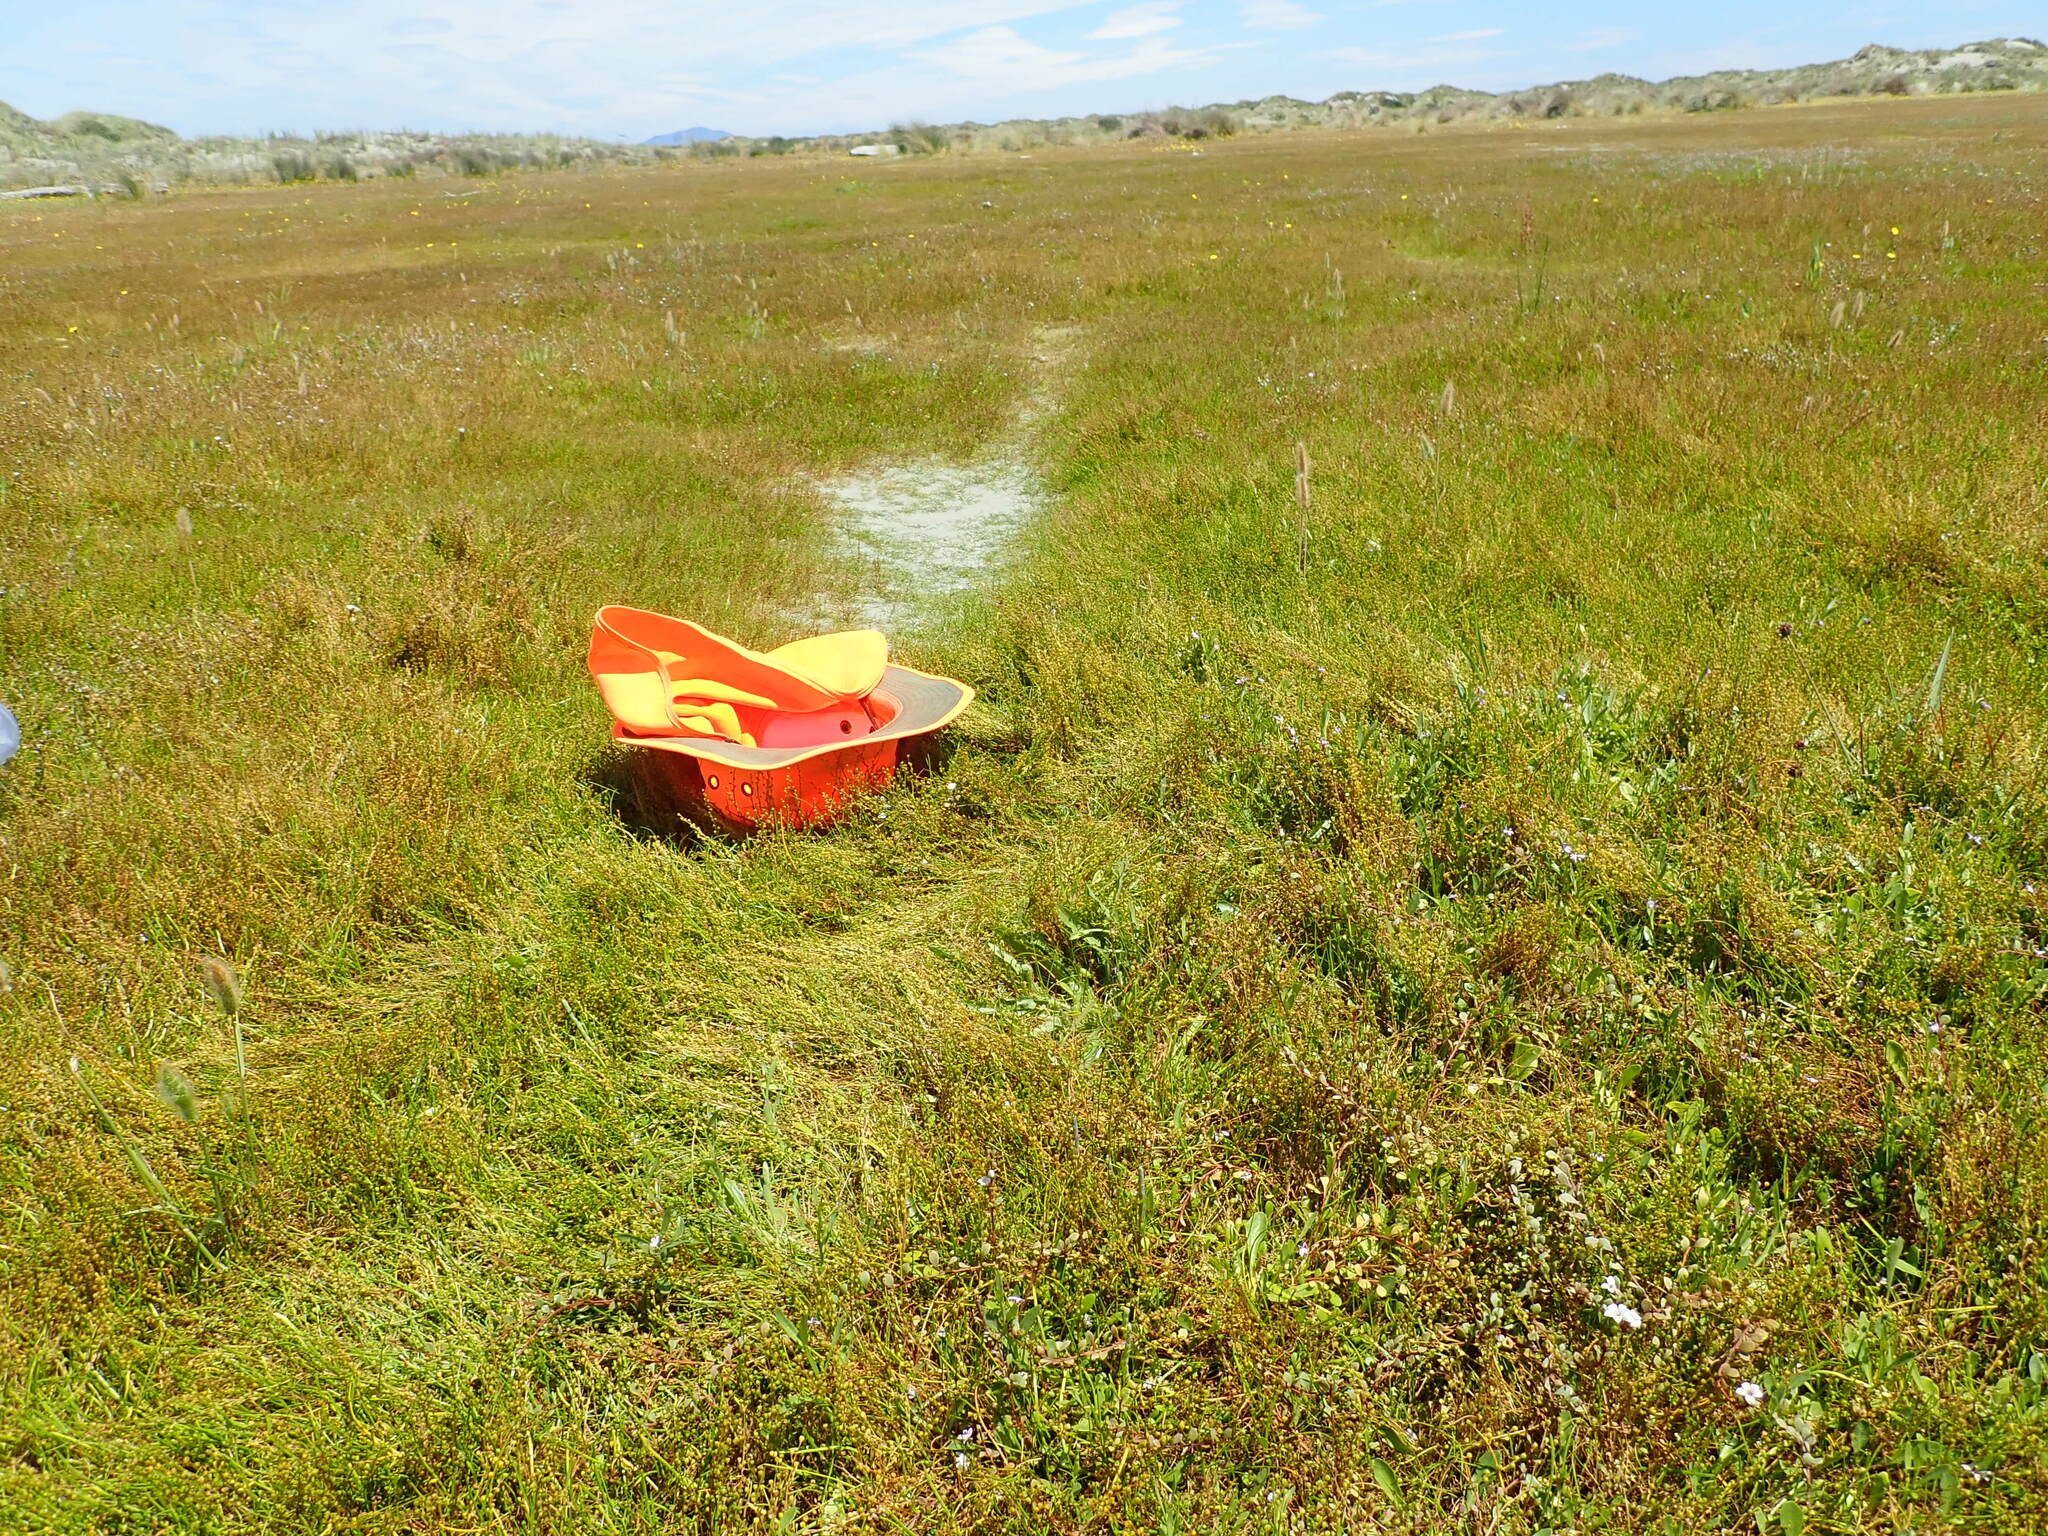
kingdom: Plantae
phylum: Tracheophyta
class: Magnoliopsida
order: Asterales
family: Campanulaceae
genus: Lobelia
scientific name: Lobelia anceps
